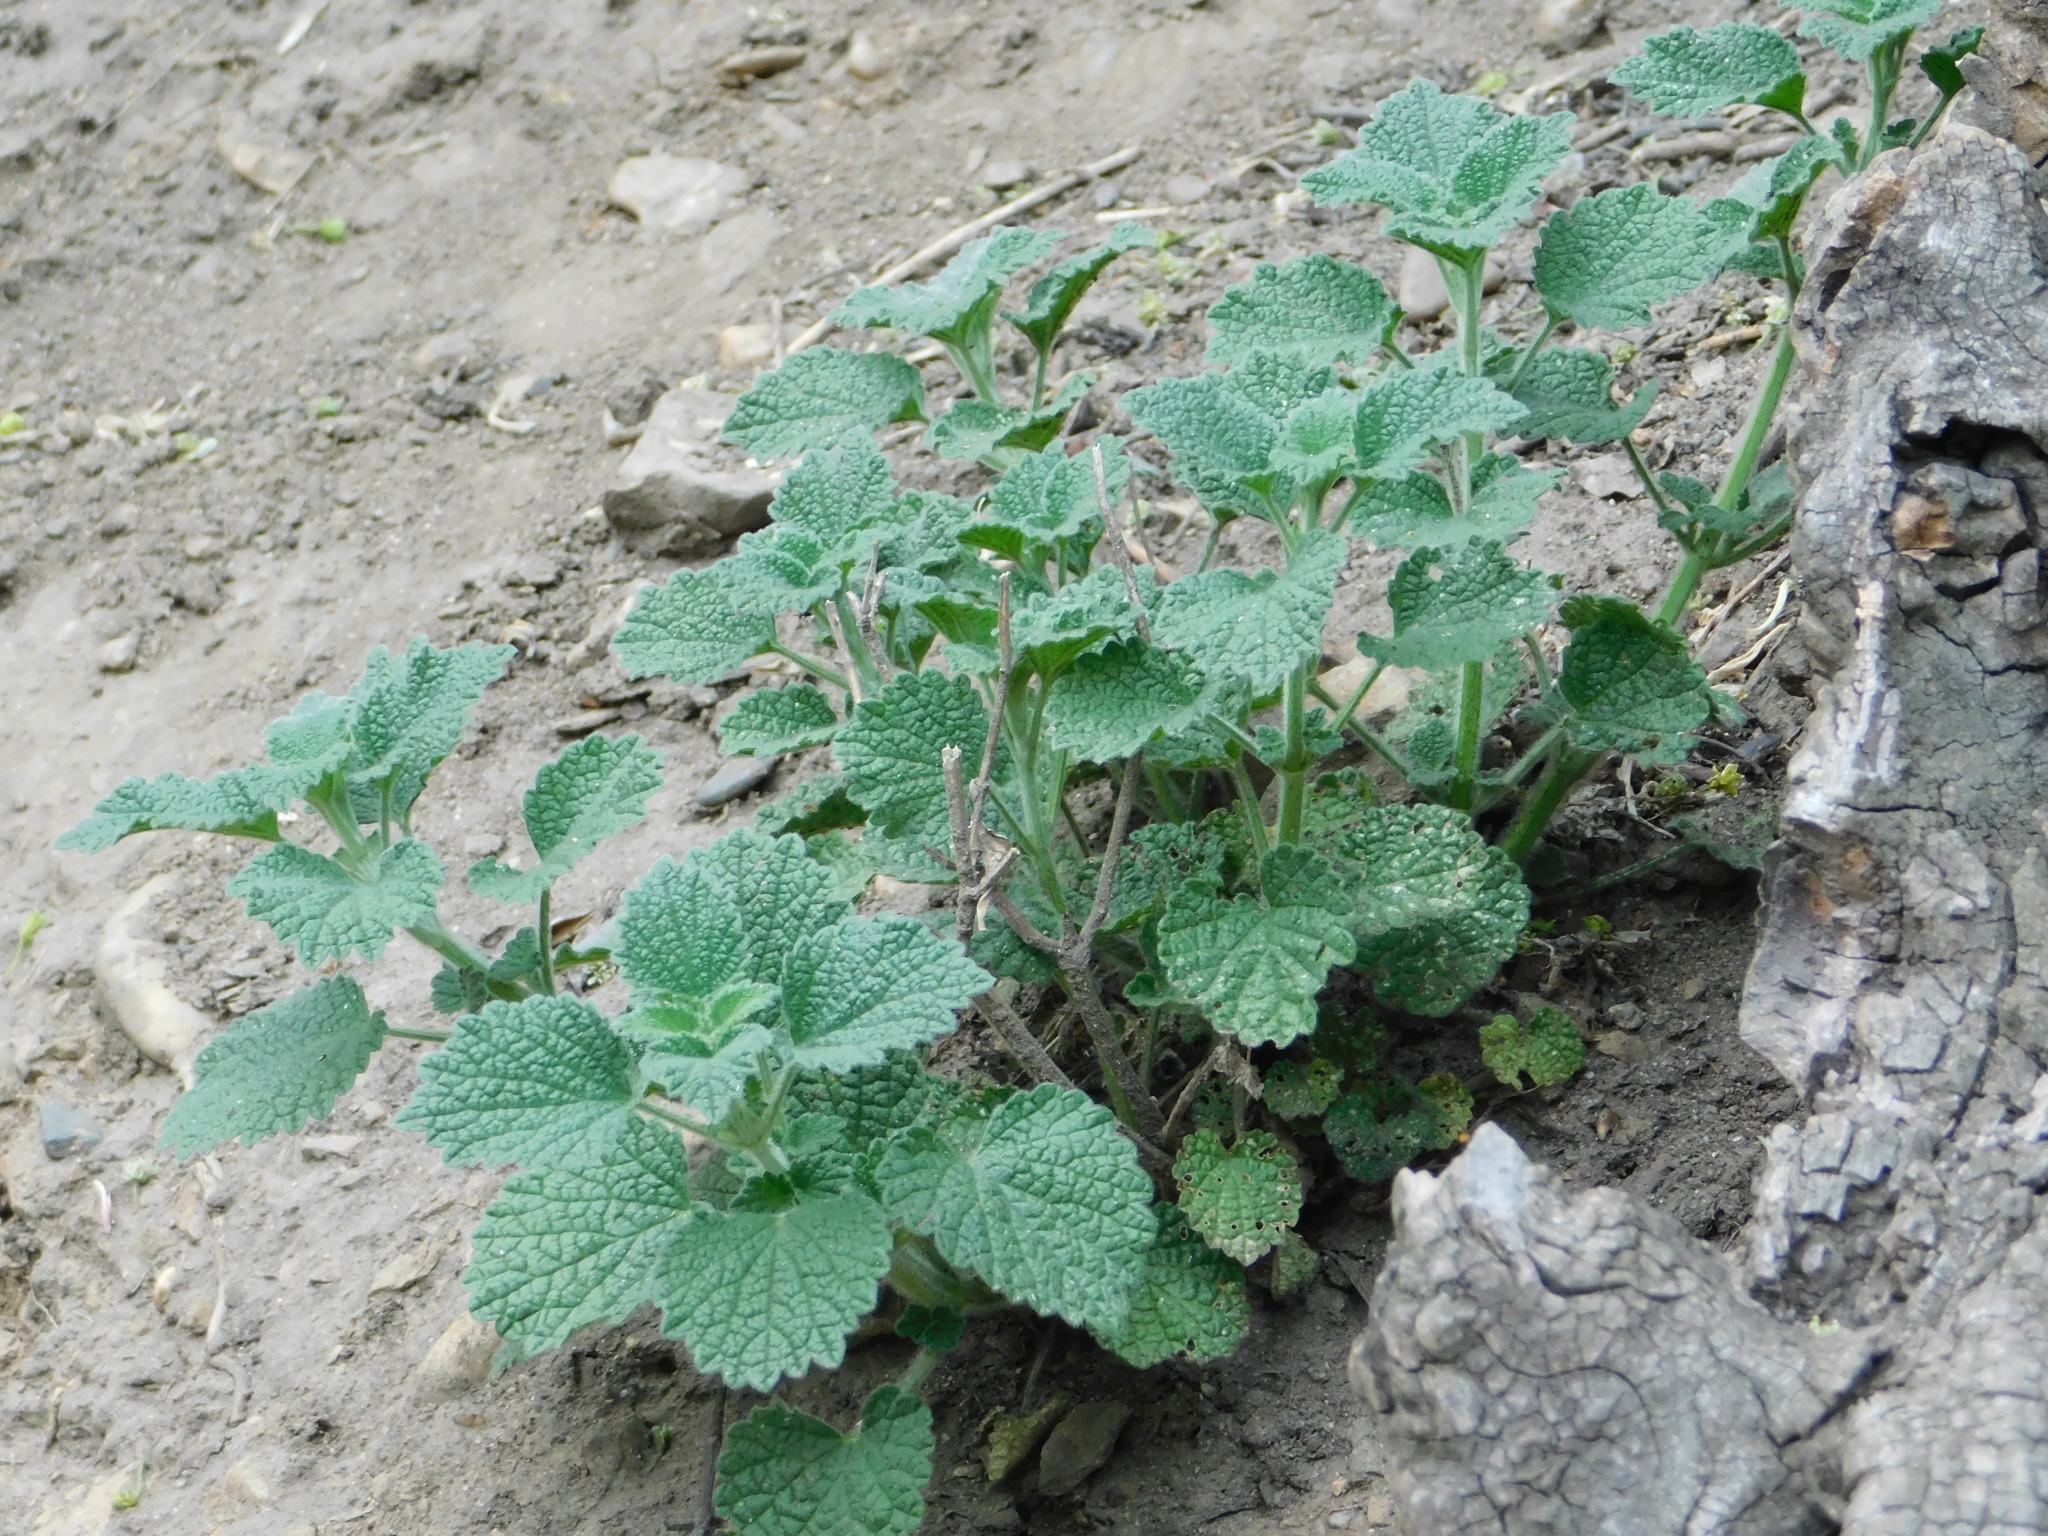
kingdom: Plantae
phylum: Tracheophyta
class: Magnoliopsida
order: Lamiales
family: Lamiaceae
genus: Ballota
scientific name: Ballota nigra
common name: Black horehound
